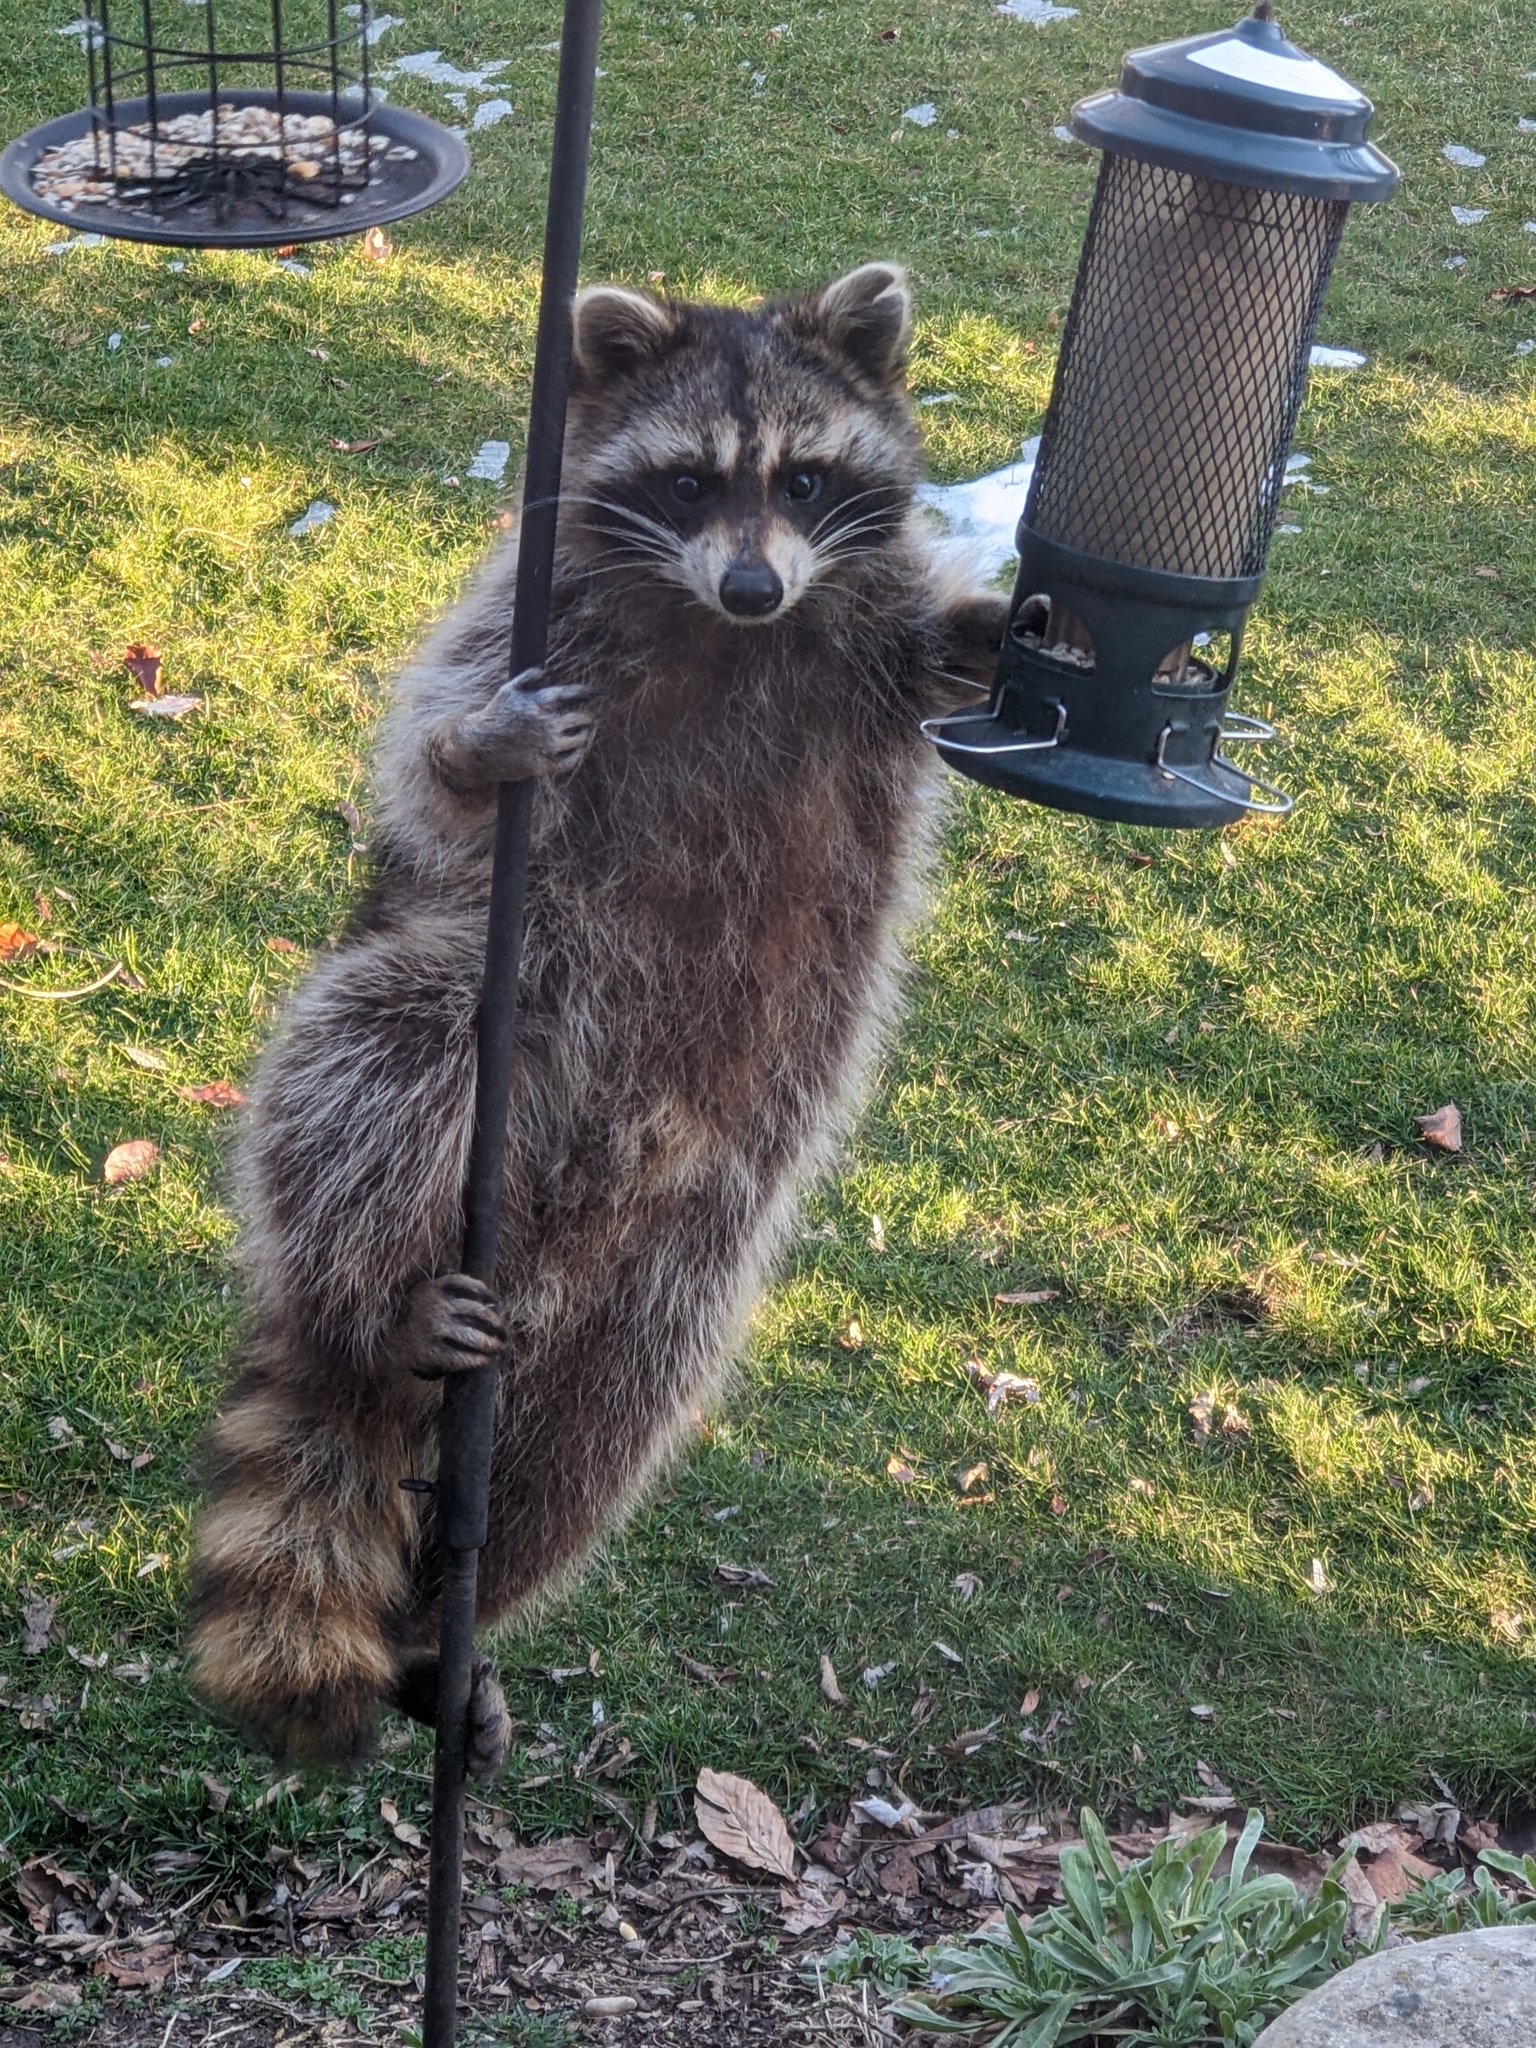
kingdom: Animalia
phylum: Chordata
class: Mammalia
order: Carnivora
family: Procyonidae
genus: Procyon
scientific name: Procyon lotor
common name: Raccoon
